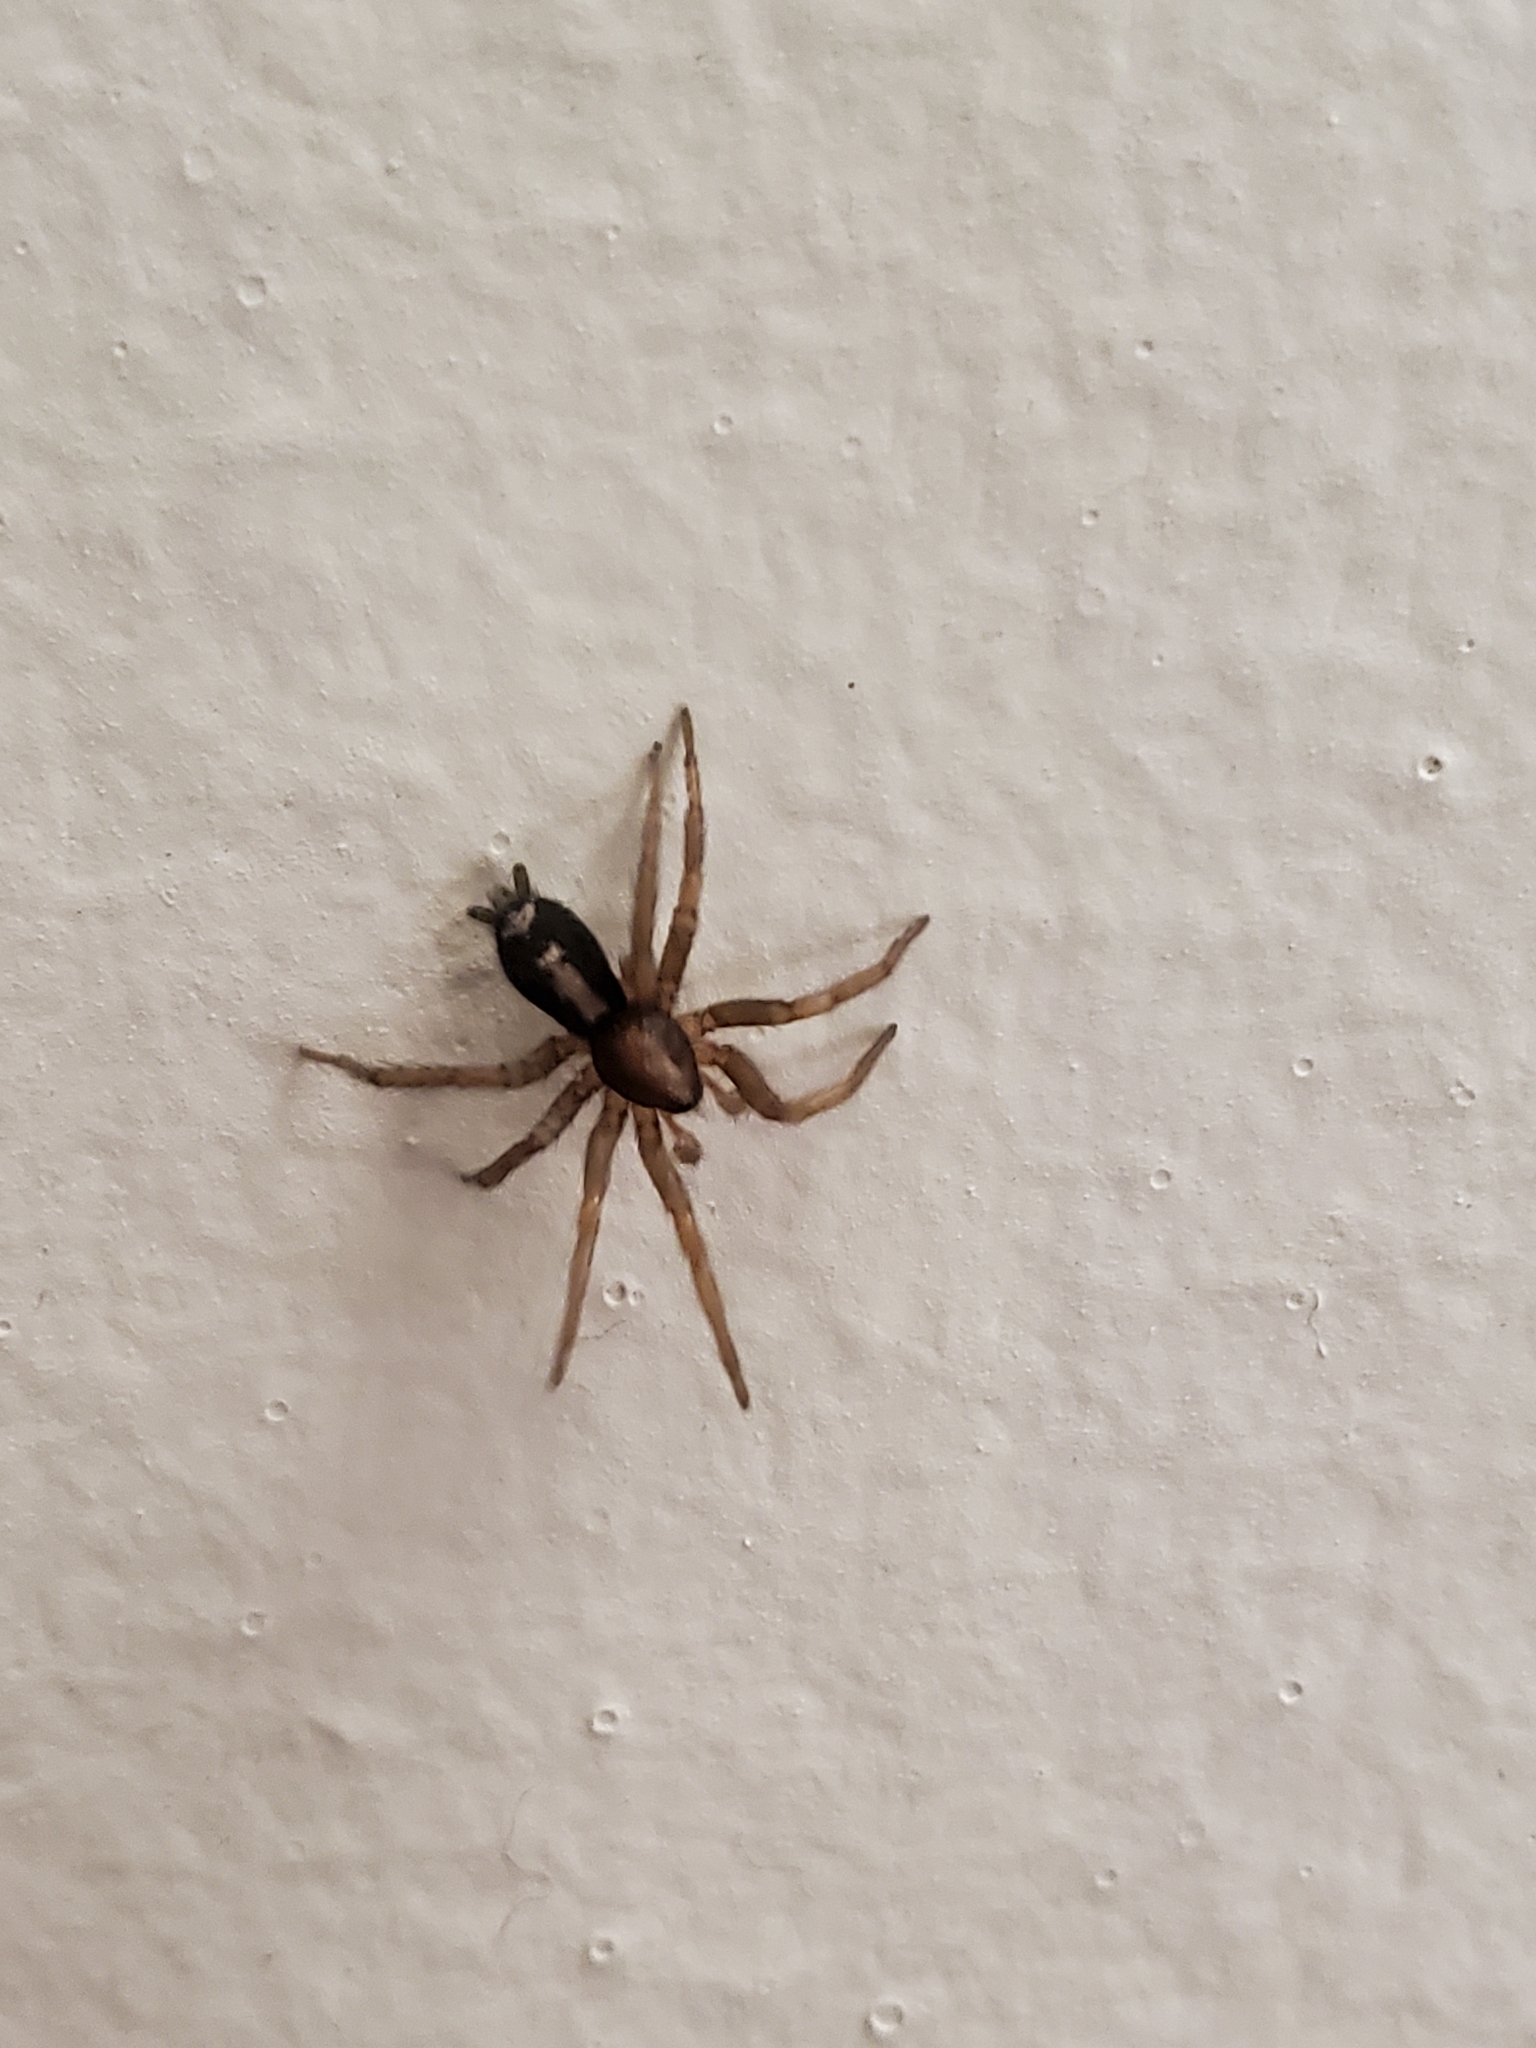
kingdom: Animalia
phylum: Arthropoda
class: Arachnida
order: Araneae
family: Gnaphosidae
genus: Herpyllus
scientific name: Herpyllus ecclesiasticus
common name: Eastern parson spider
